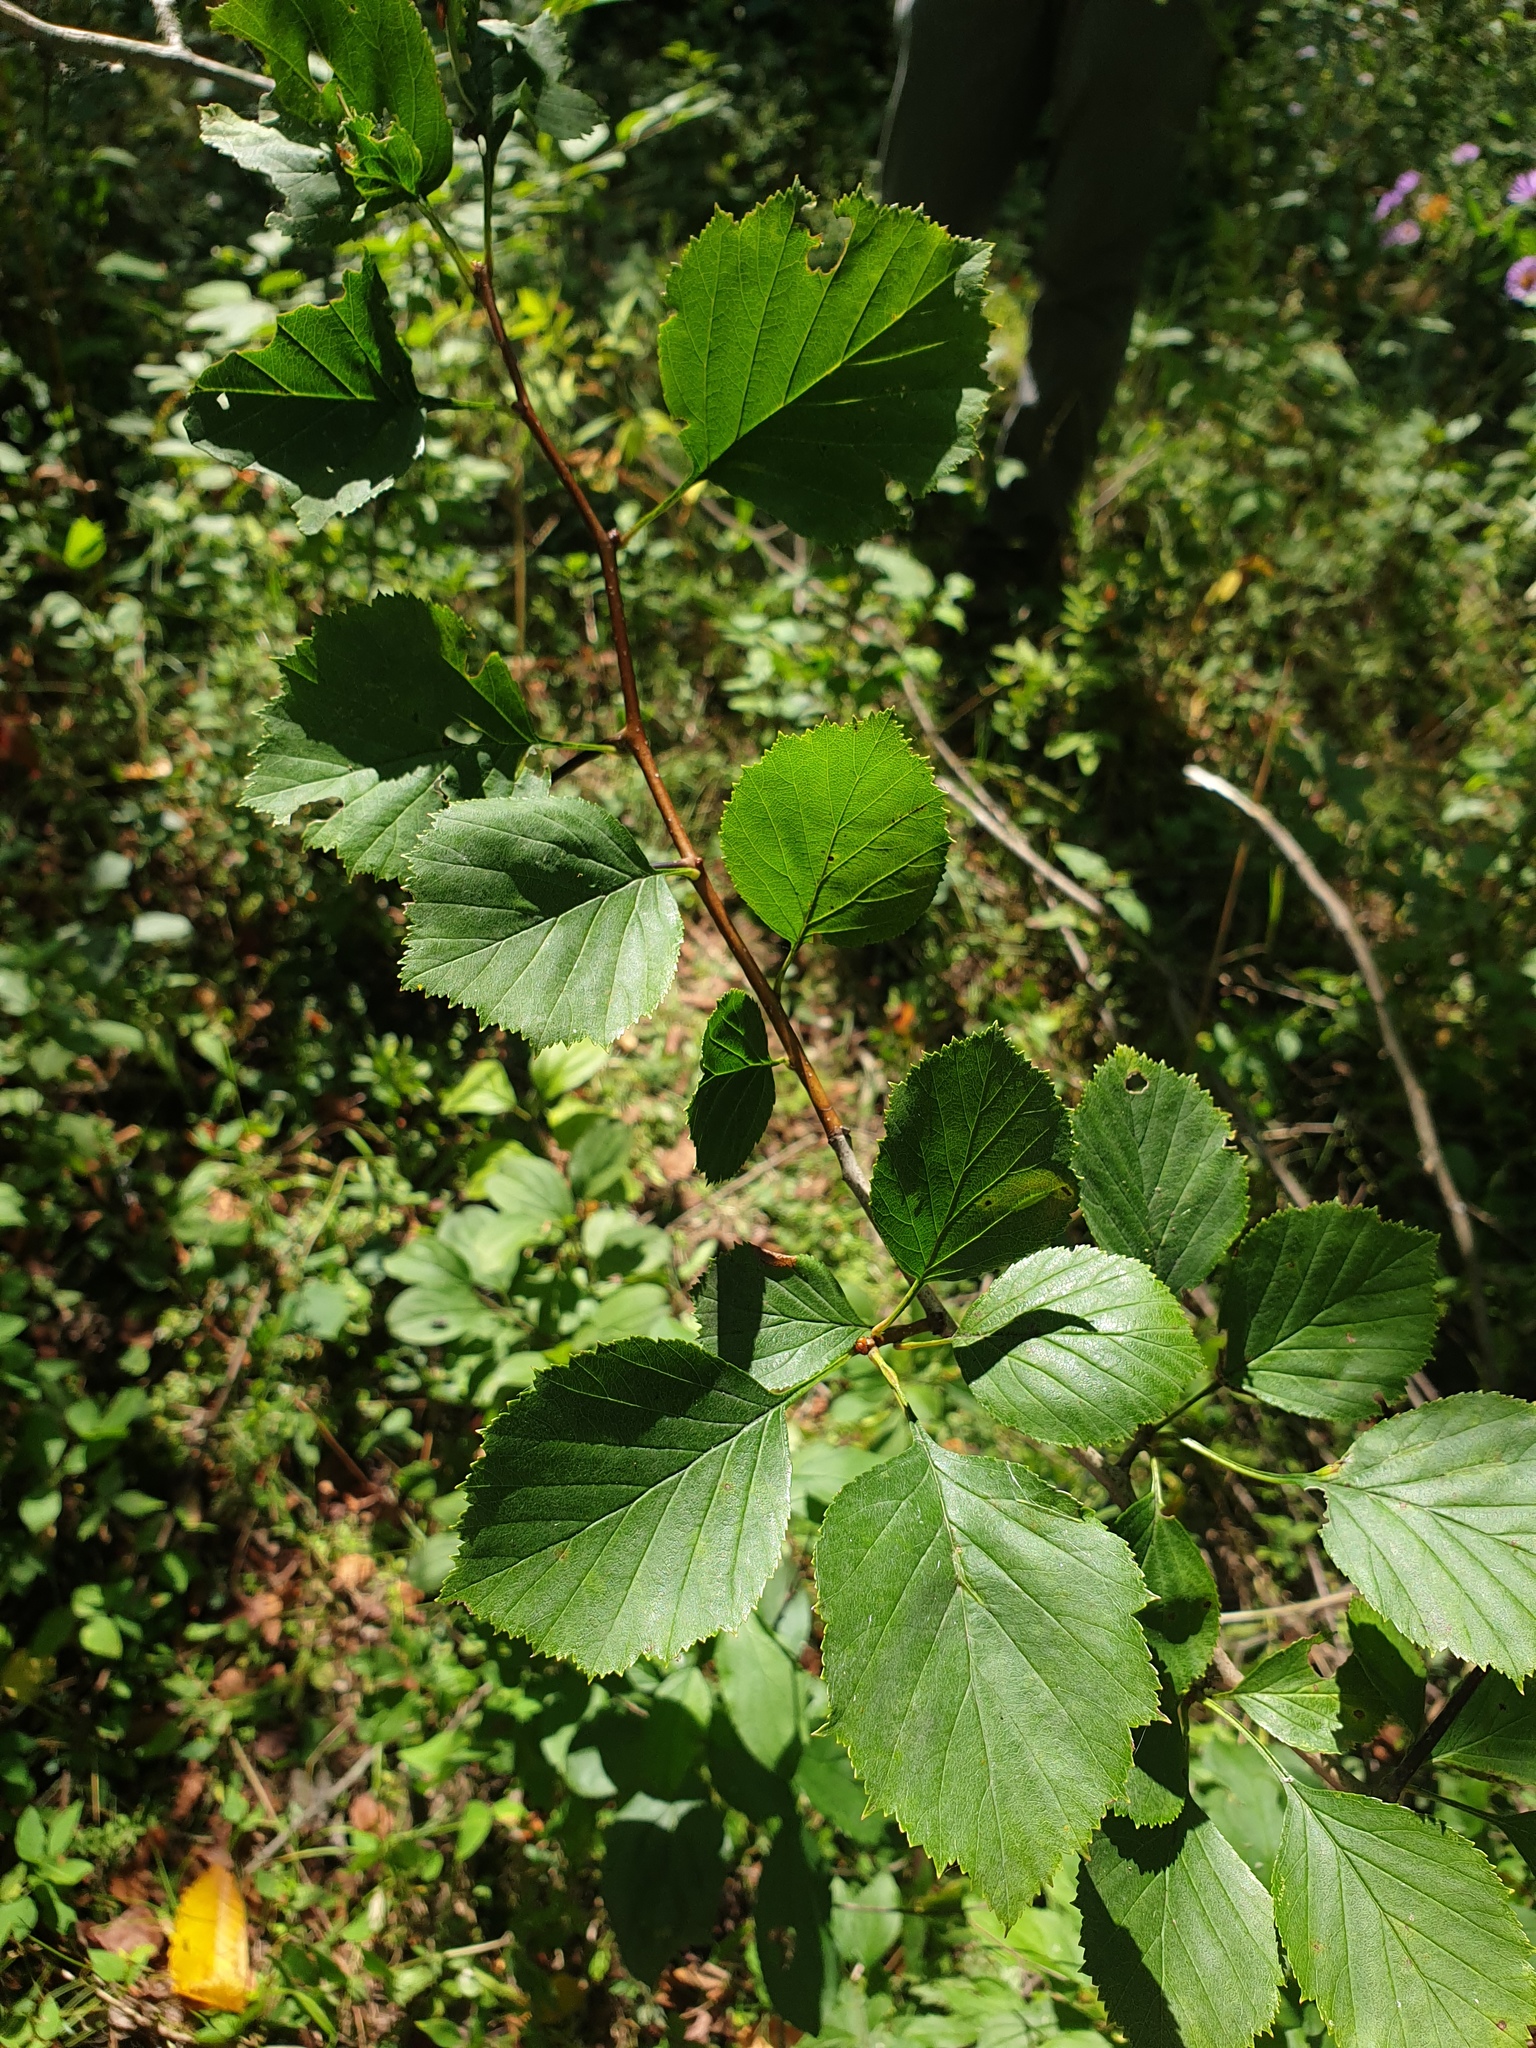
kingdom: Plantae
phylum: Tracheophyta
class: Magnoliopsida
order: Rosales
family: Rosaceae
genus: Crataegus
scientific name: Crataegus suborbiculata
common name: Caughnawaga hawthorn
